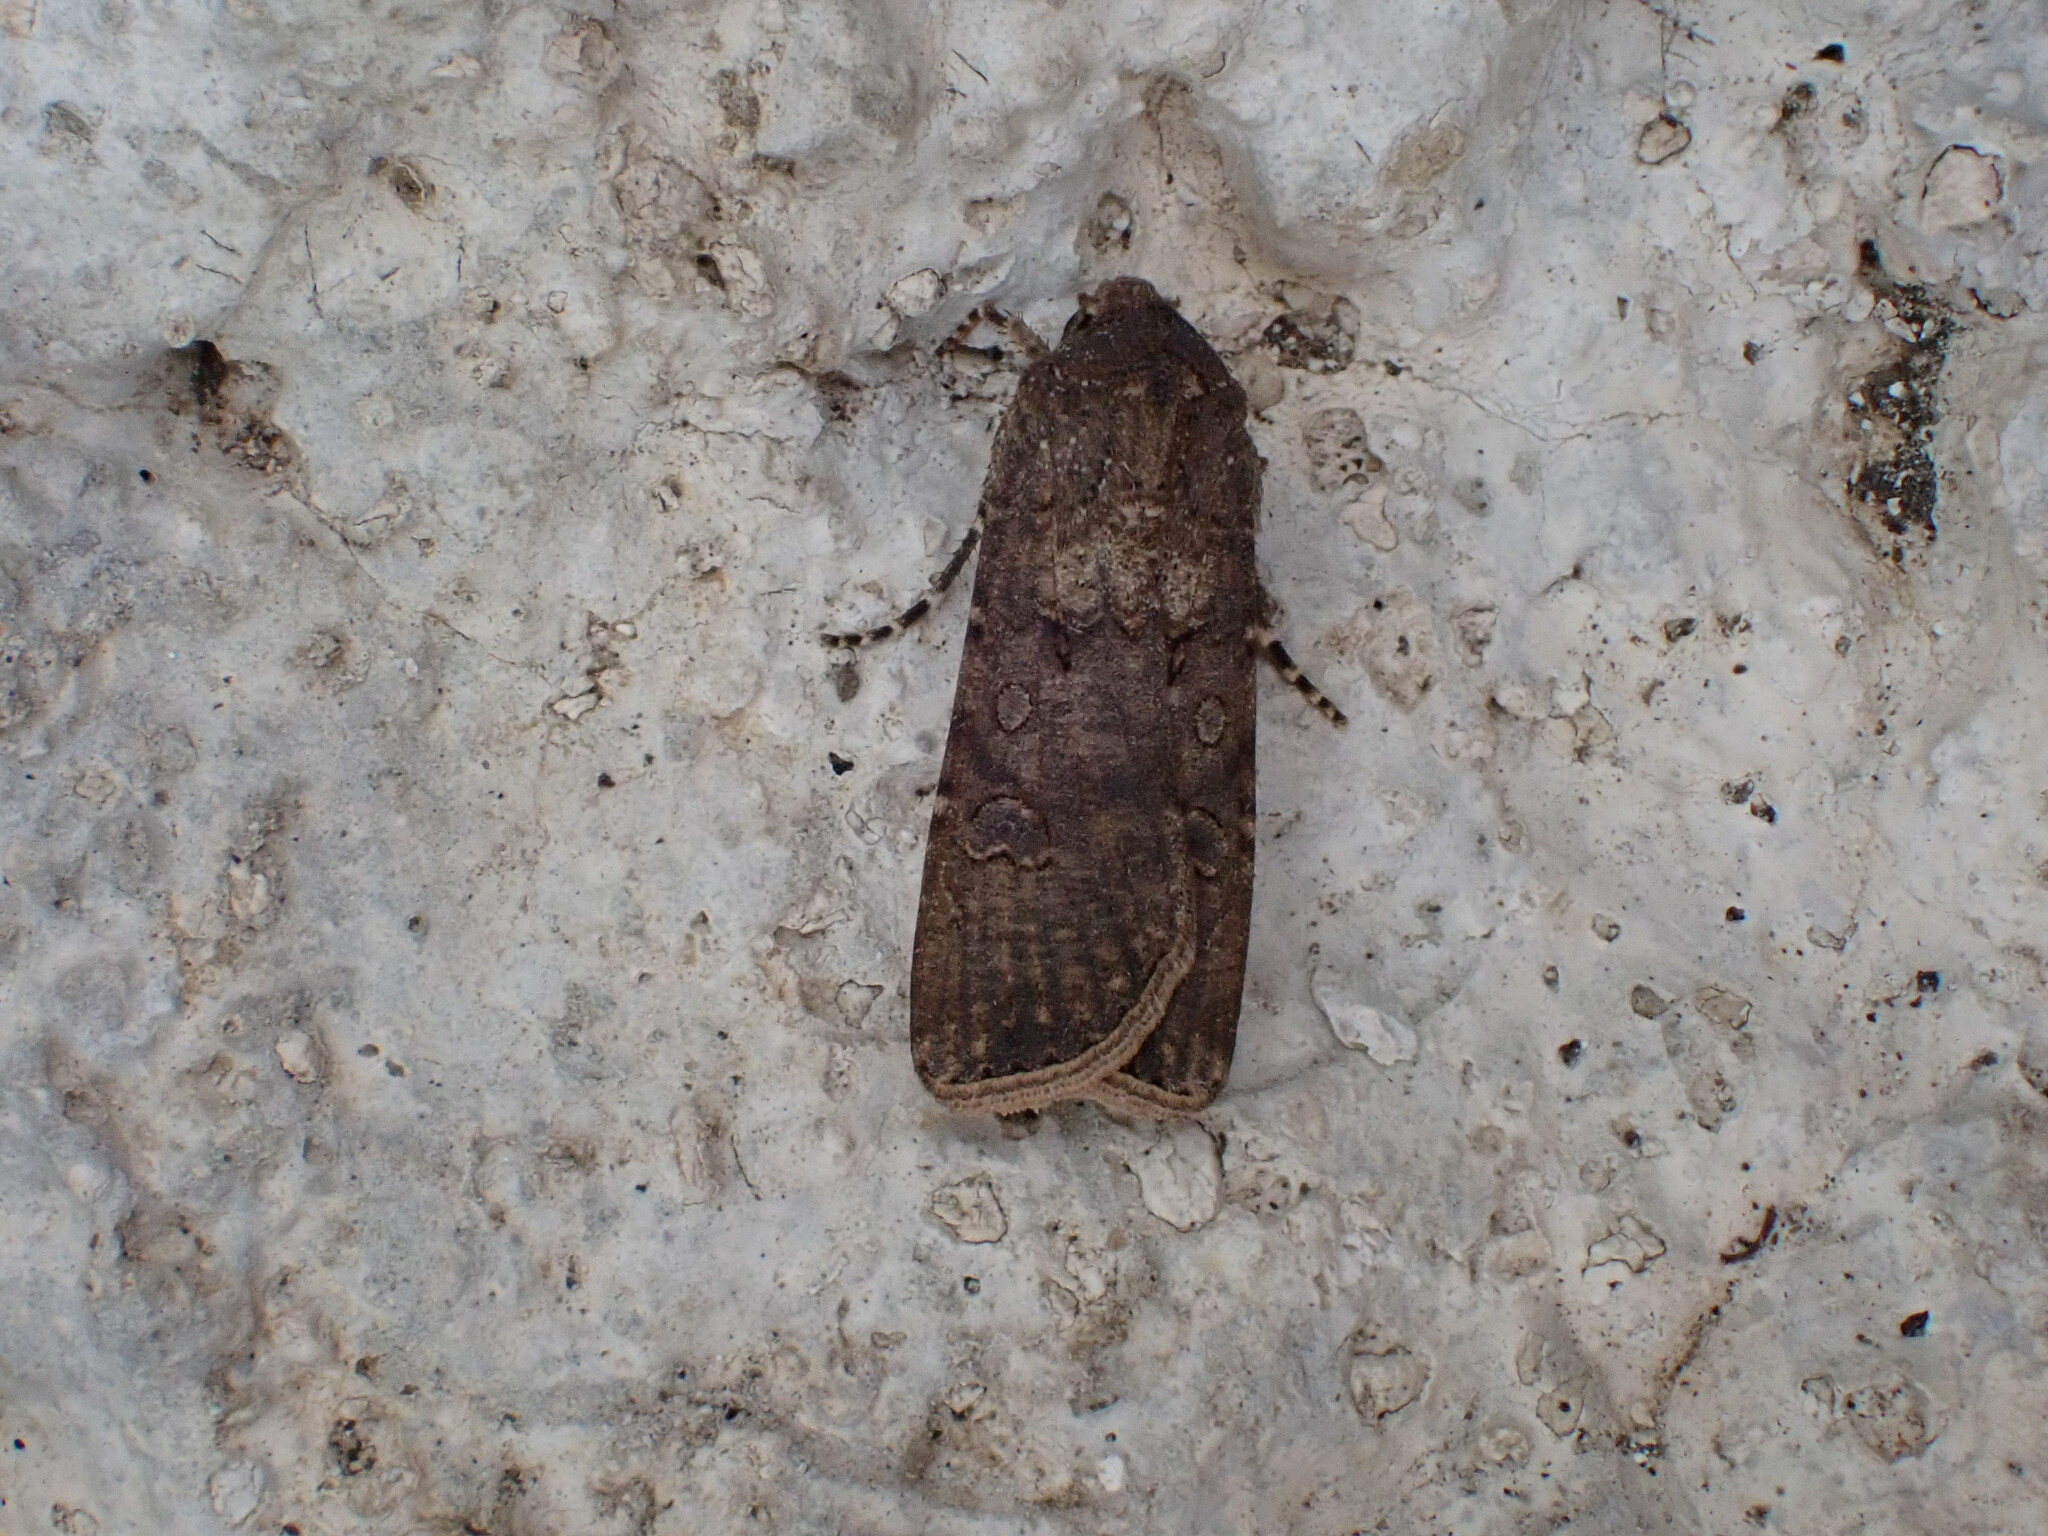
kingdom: Animalia
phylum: Arthropoda
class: Insecta
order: Lepidoptera
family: Noctuidae
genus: Agrotis
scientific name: Agrotis segetum
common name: Turnip moth
